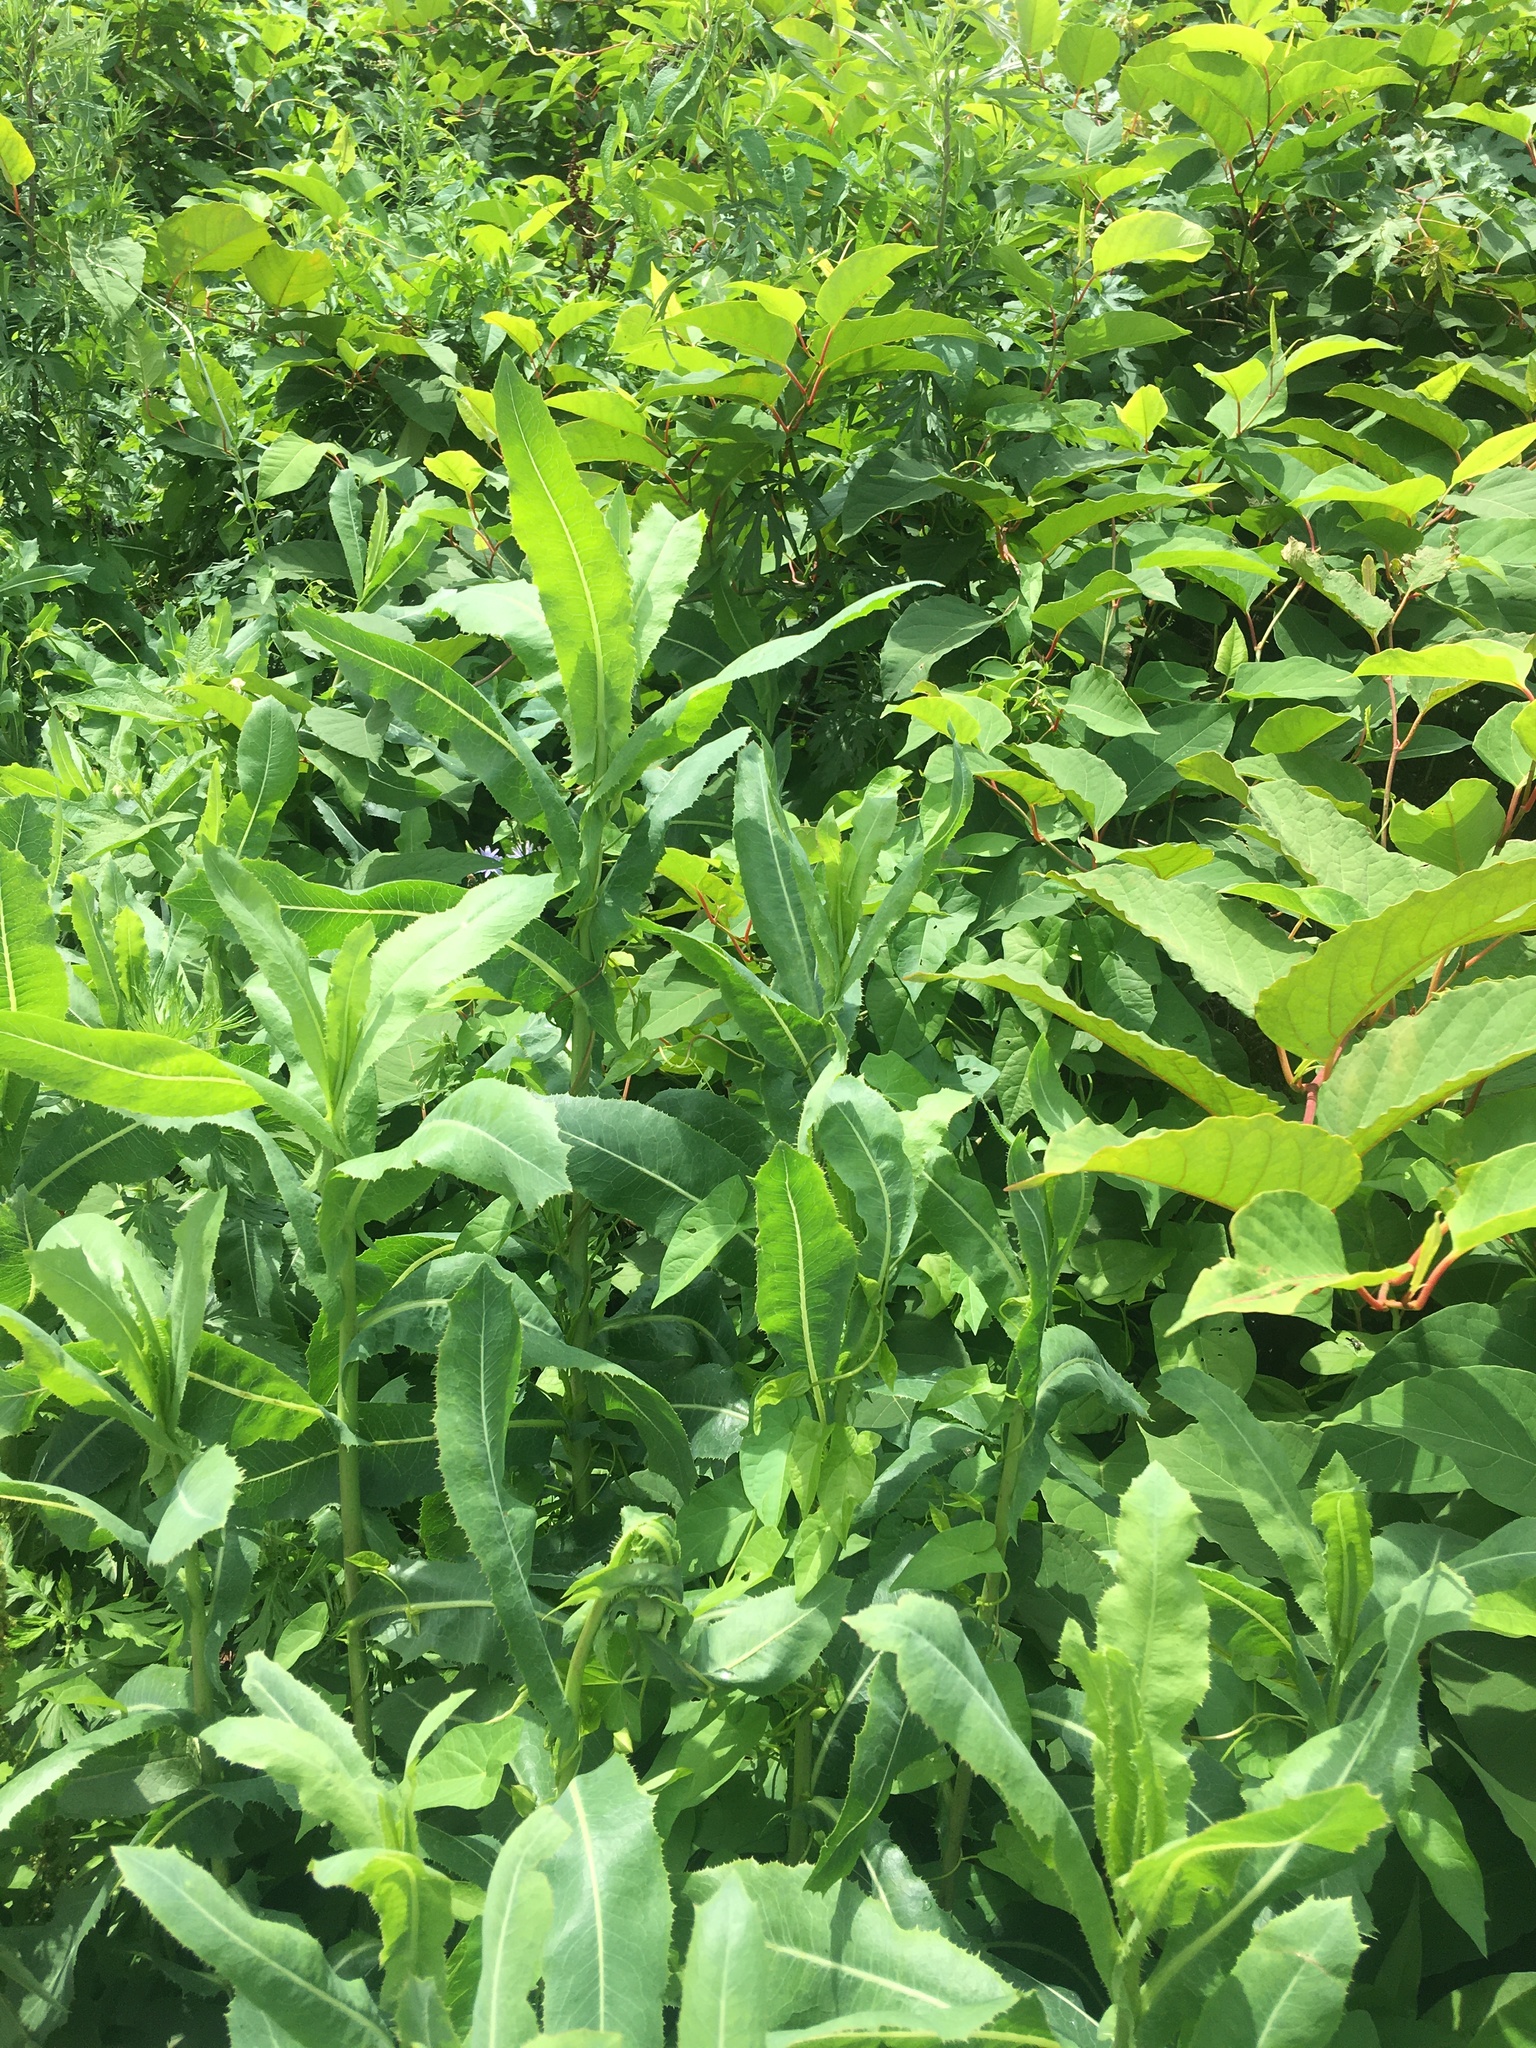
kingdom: Plantae
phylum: Tracheophyta
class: Magnoliopsida
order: Asterales
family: Asteraceae
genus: Lactuca
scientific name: Lactuca serriola
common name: Prickly lettuce
